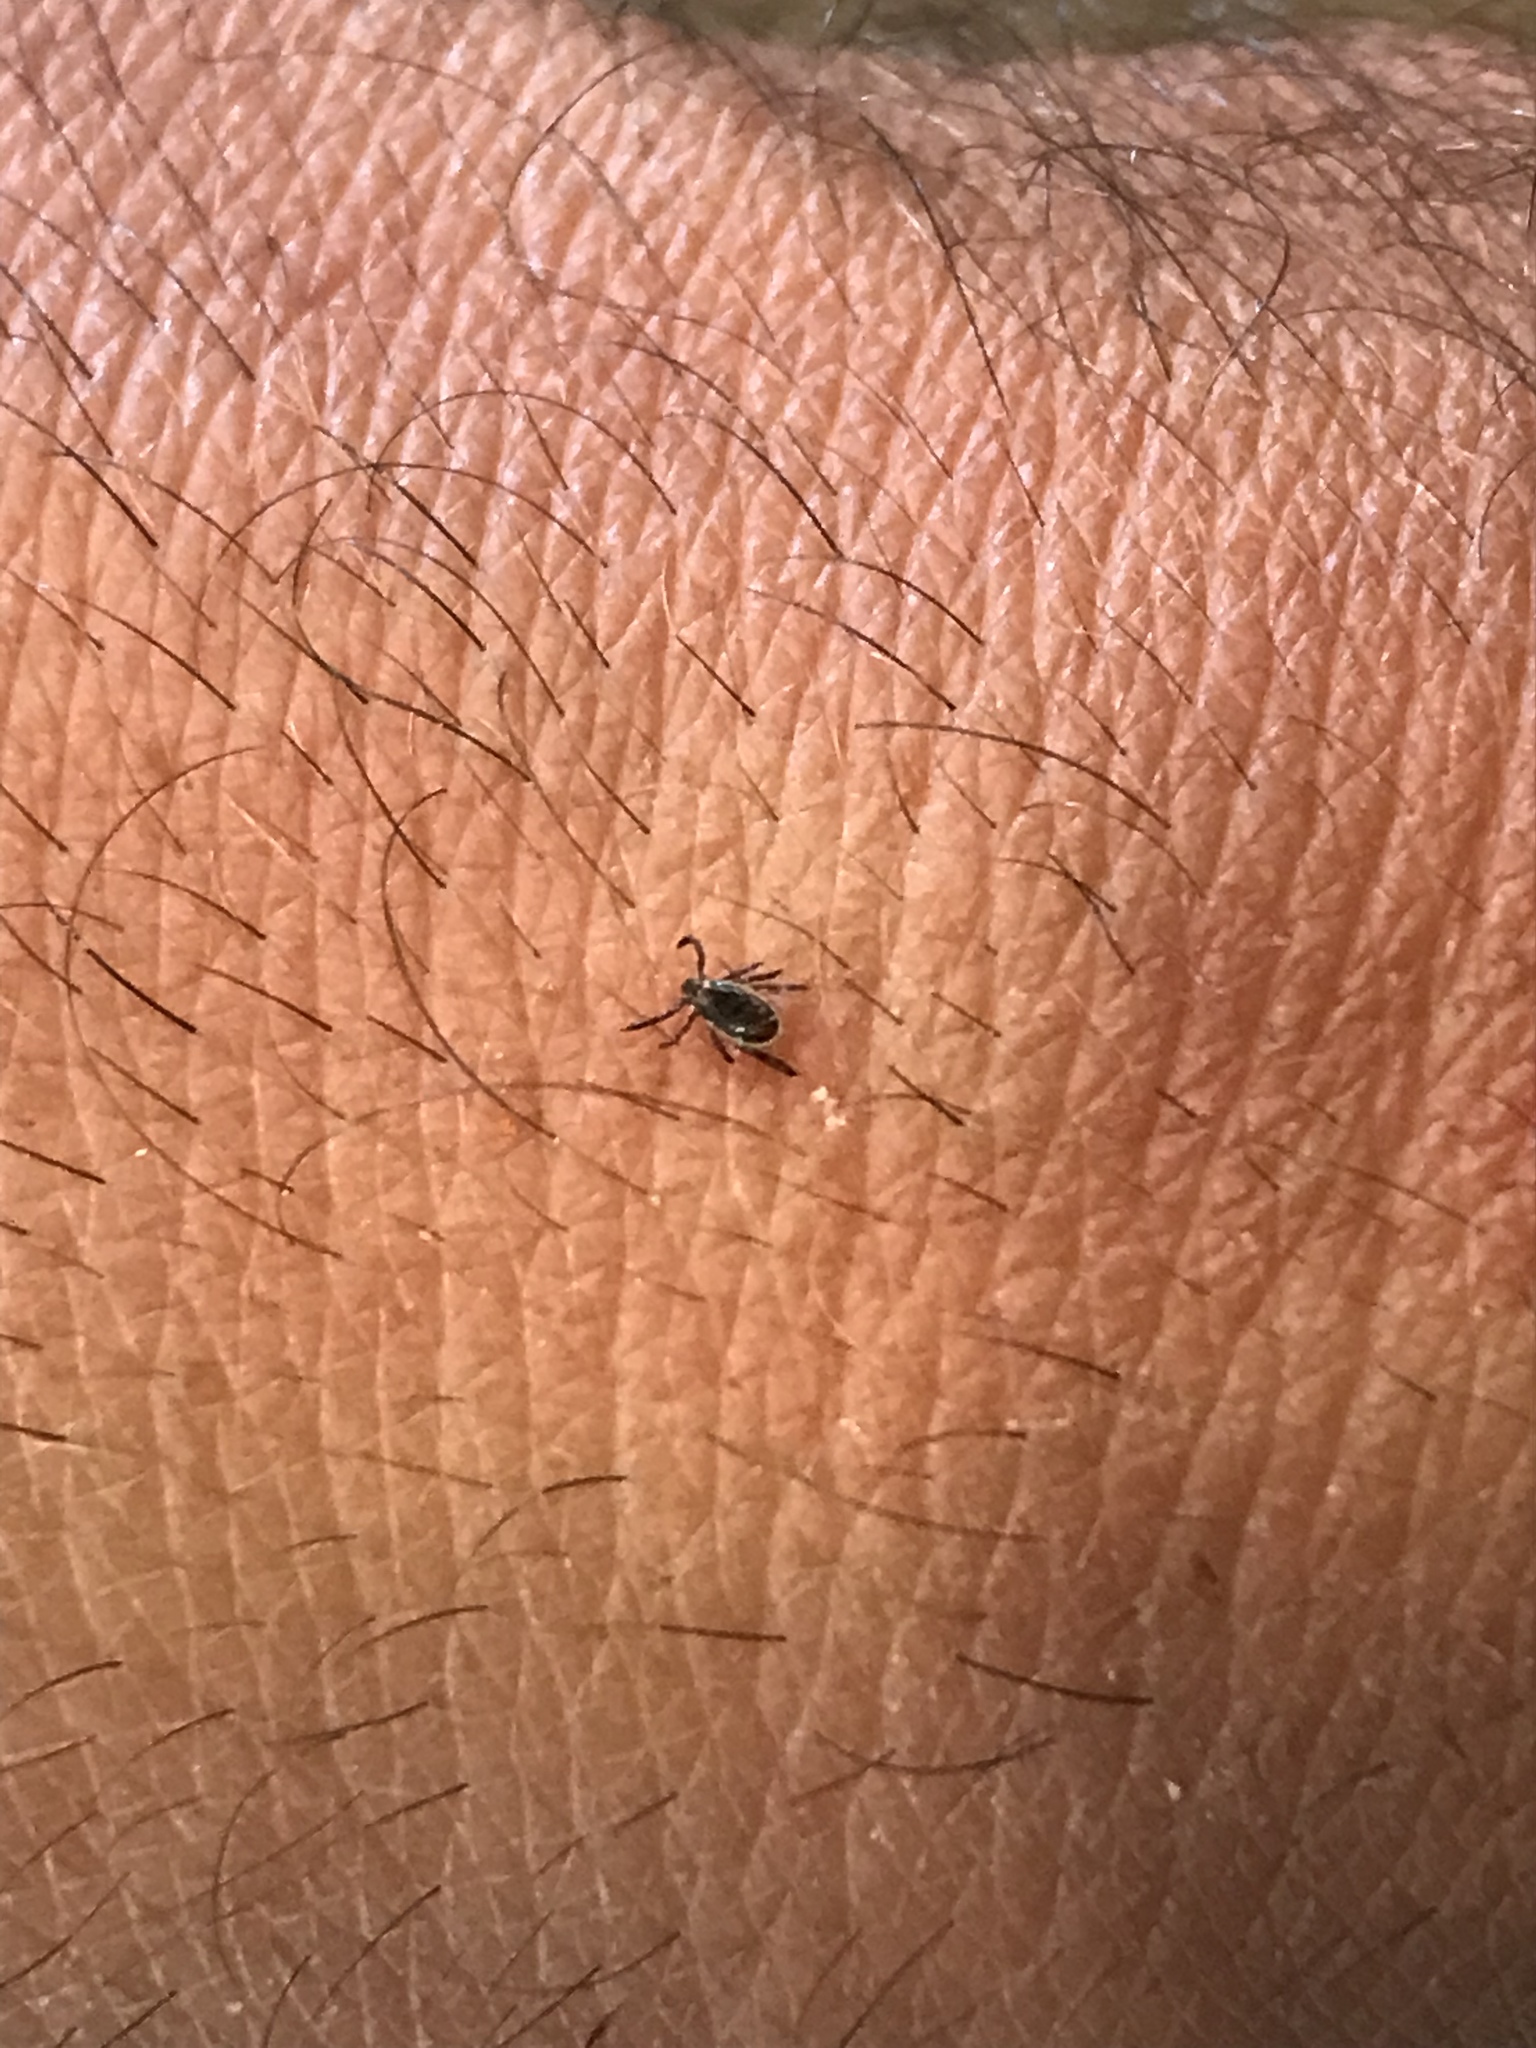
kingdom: Animalia
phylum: Arthropoda
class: Arachnida
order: Ixodida
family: Ixodidae
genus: Ixodes
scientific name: Ixodes scapularis
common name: Black legged tick
